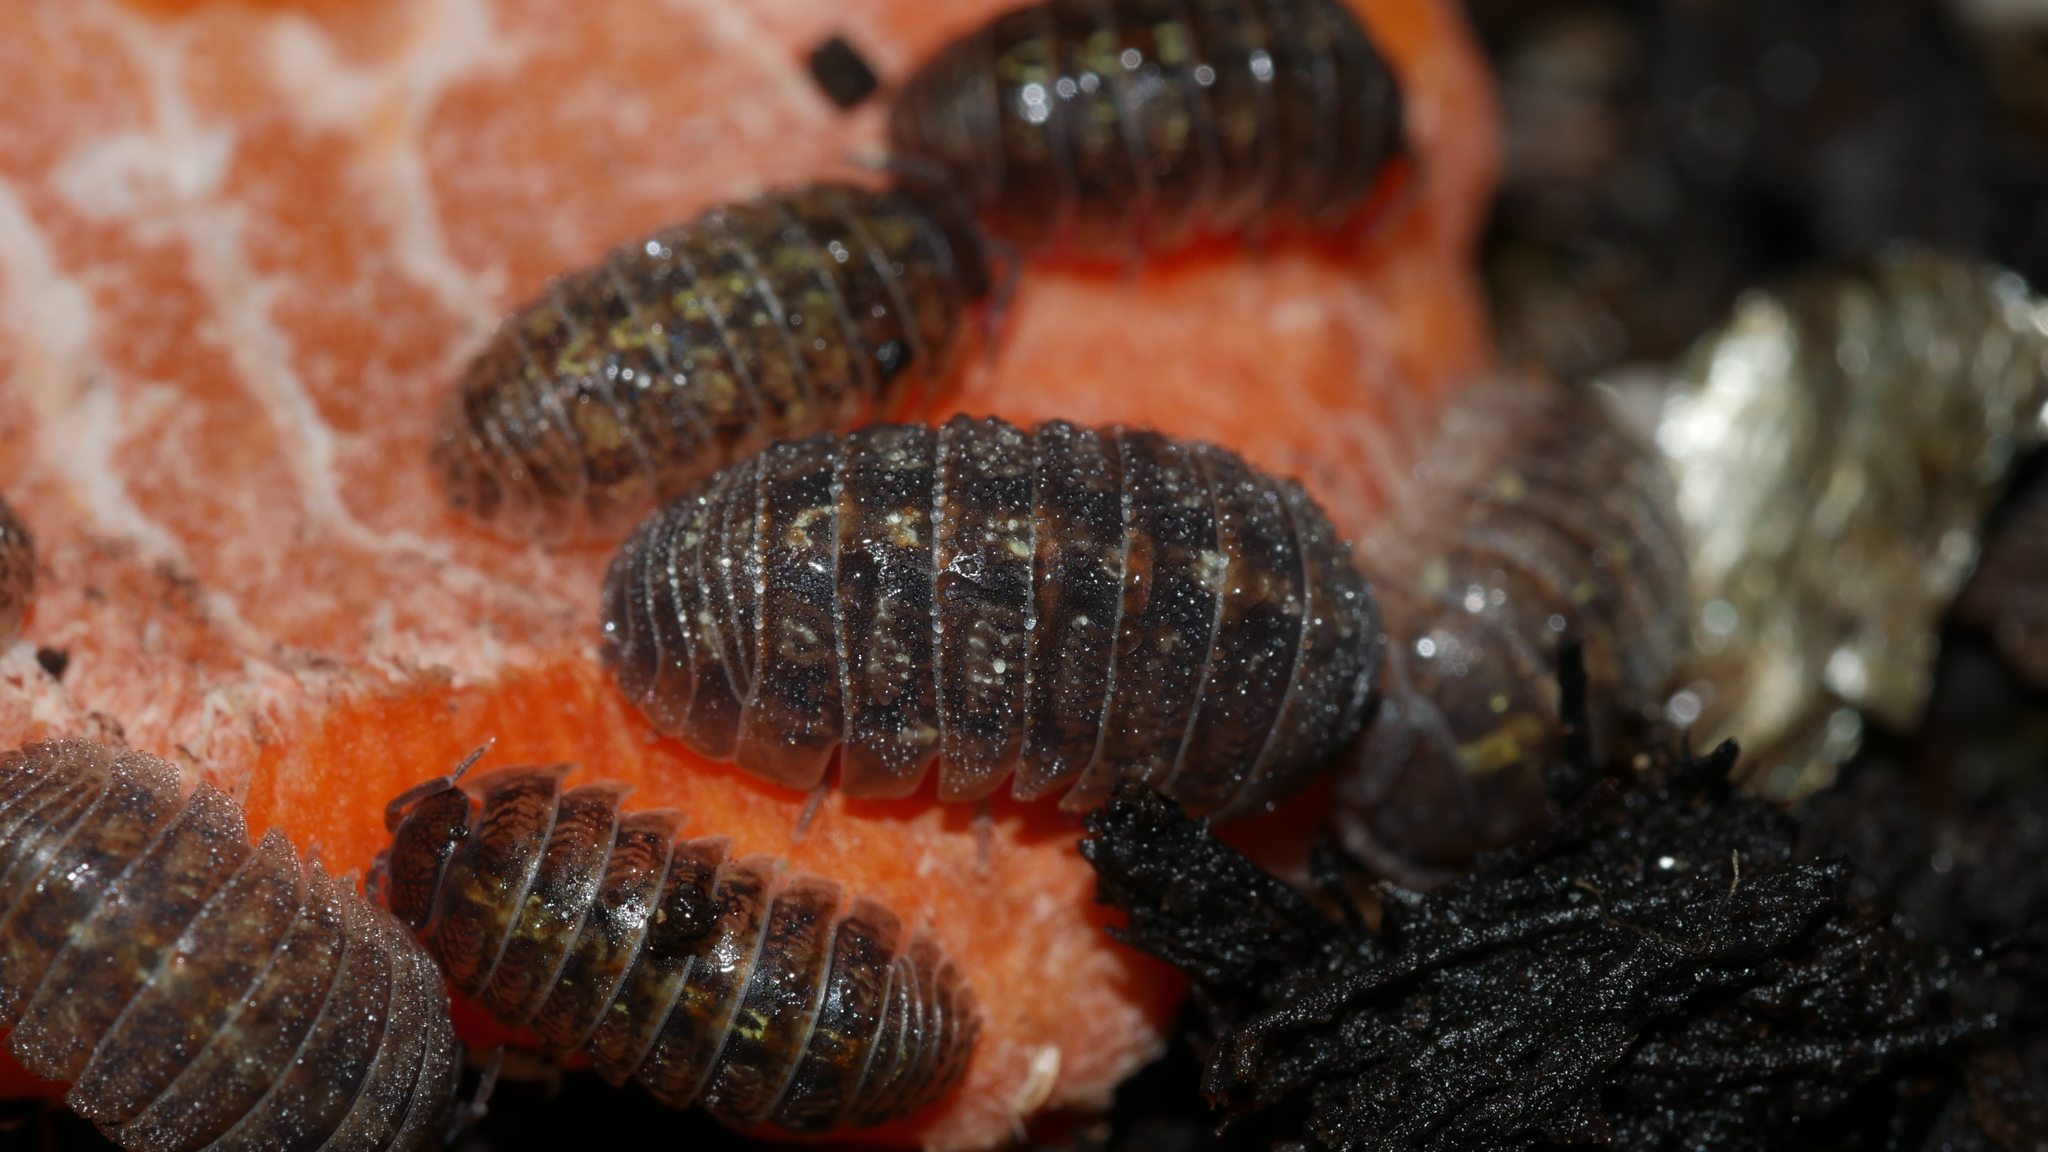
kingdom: Animalia
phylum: Arthropoda
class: Malacostraca
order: Isopoda
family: Armadillidiidae
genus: Armadillidium
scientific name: Armadillidium vulgare
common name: Common pill woodlouse
